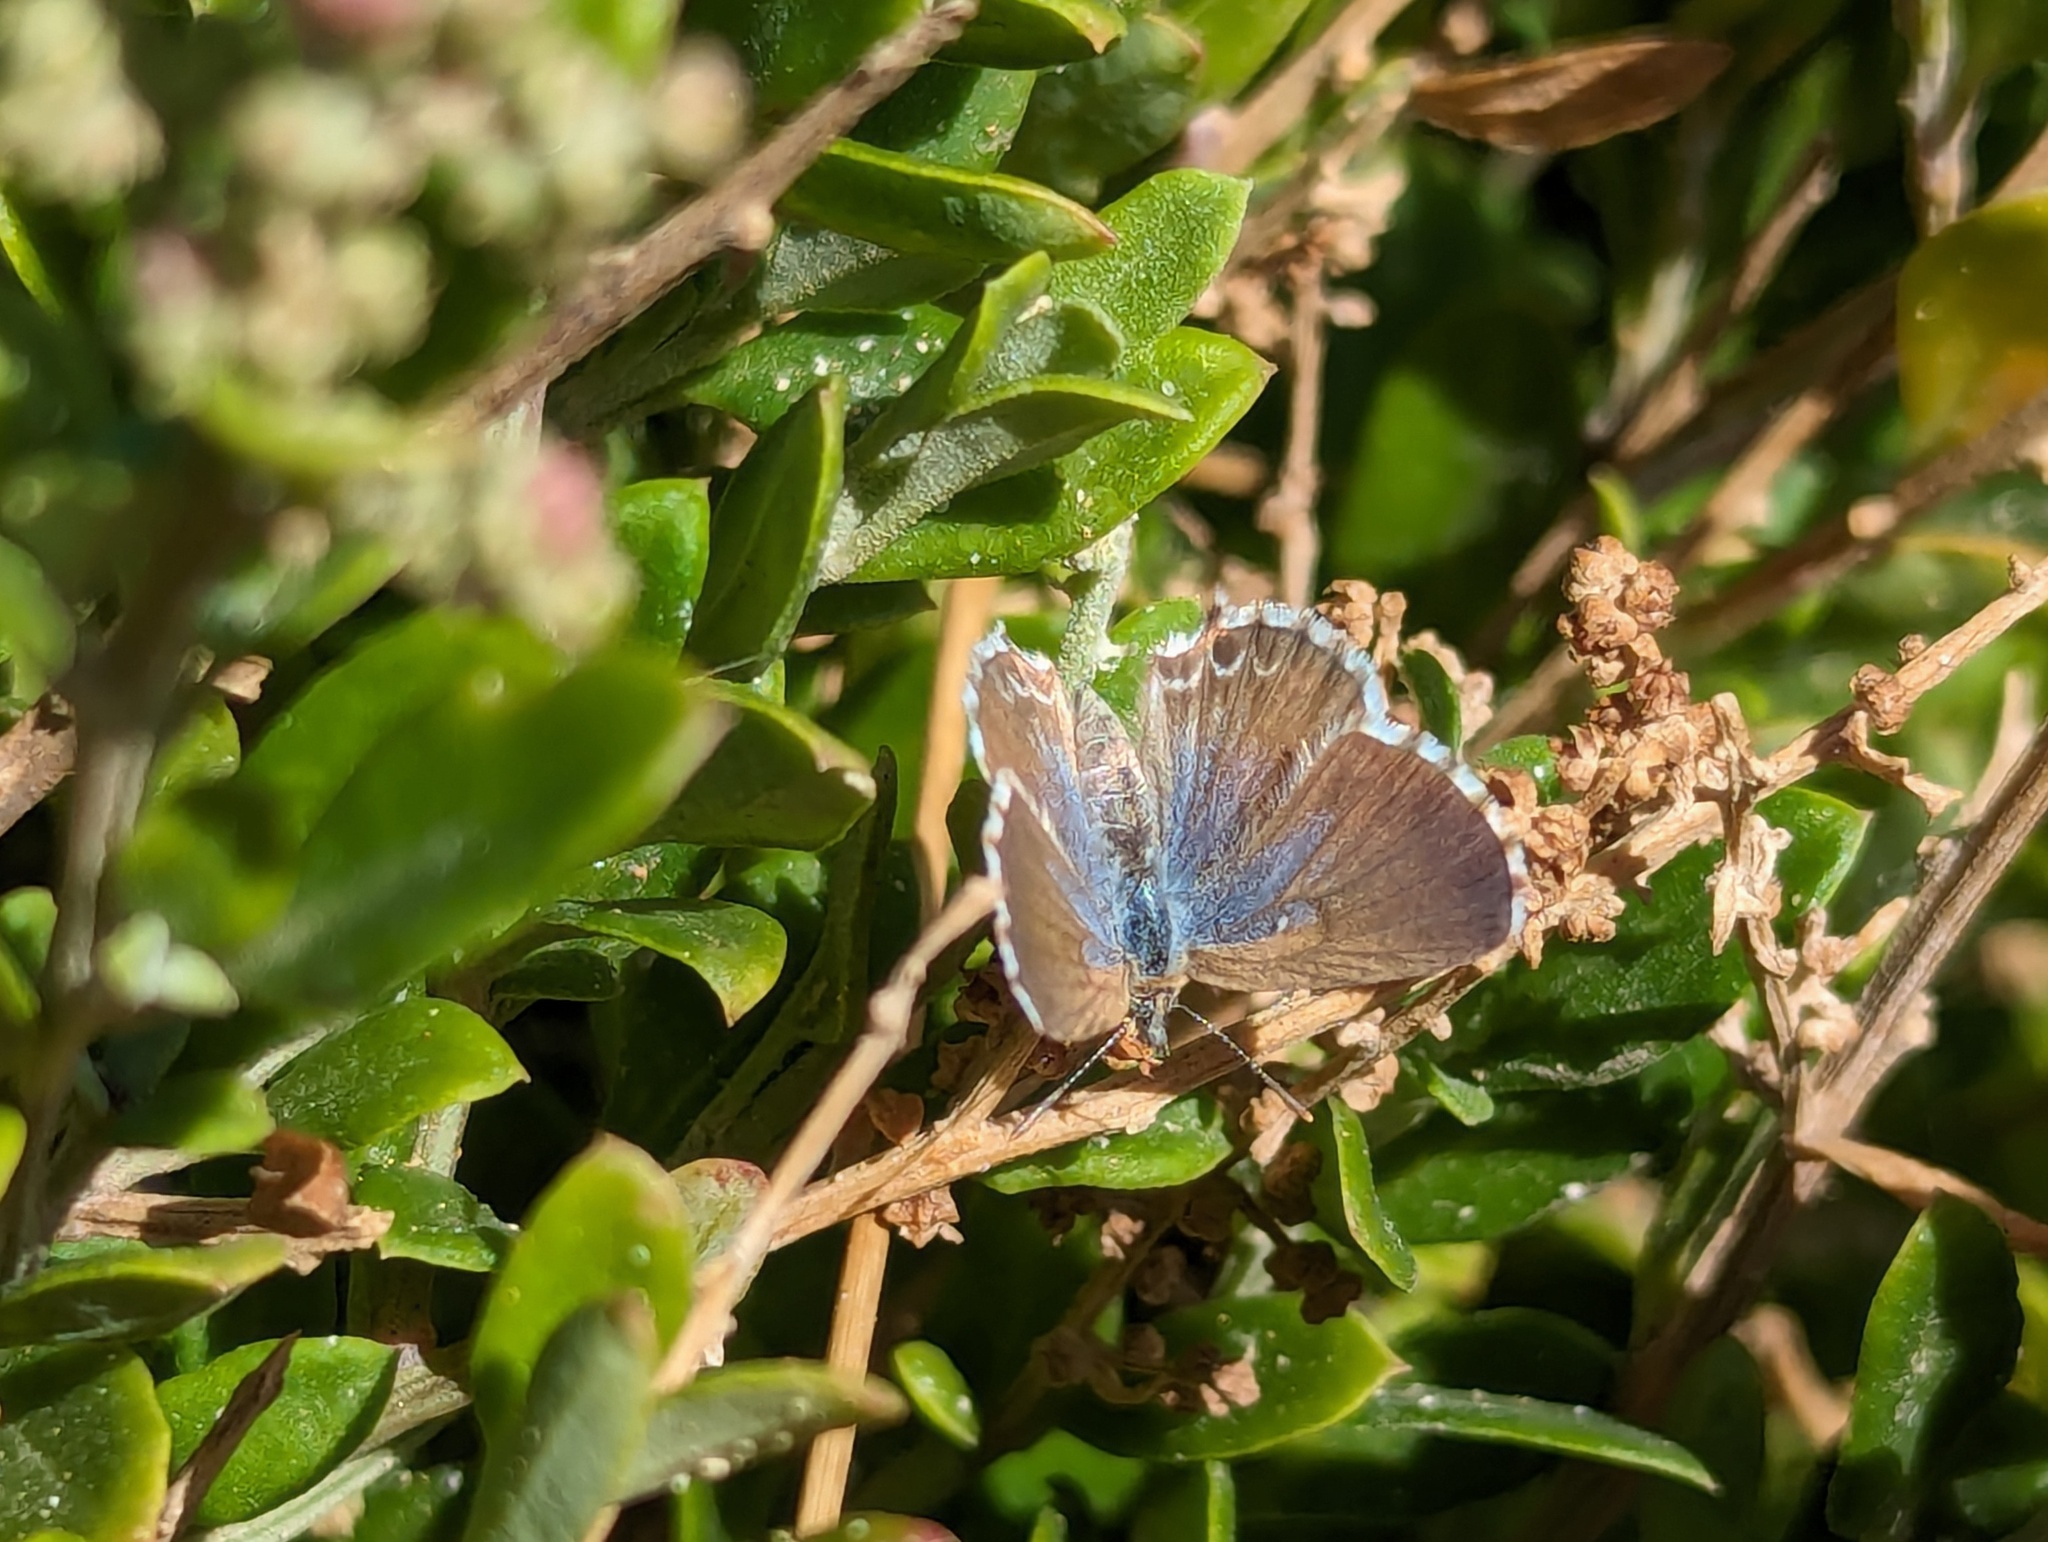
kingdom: Animalia
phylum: Arthropoda
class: Insecta
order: Lepidoptera
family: Lycaenidae
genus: Theclinesthes
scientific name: Theclinesthes serpentata
